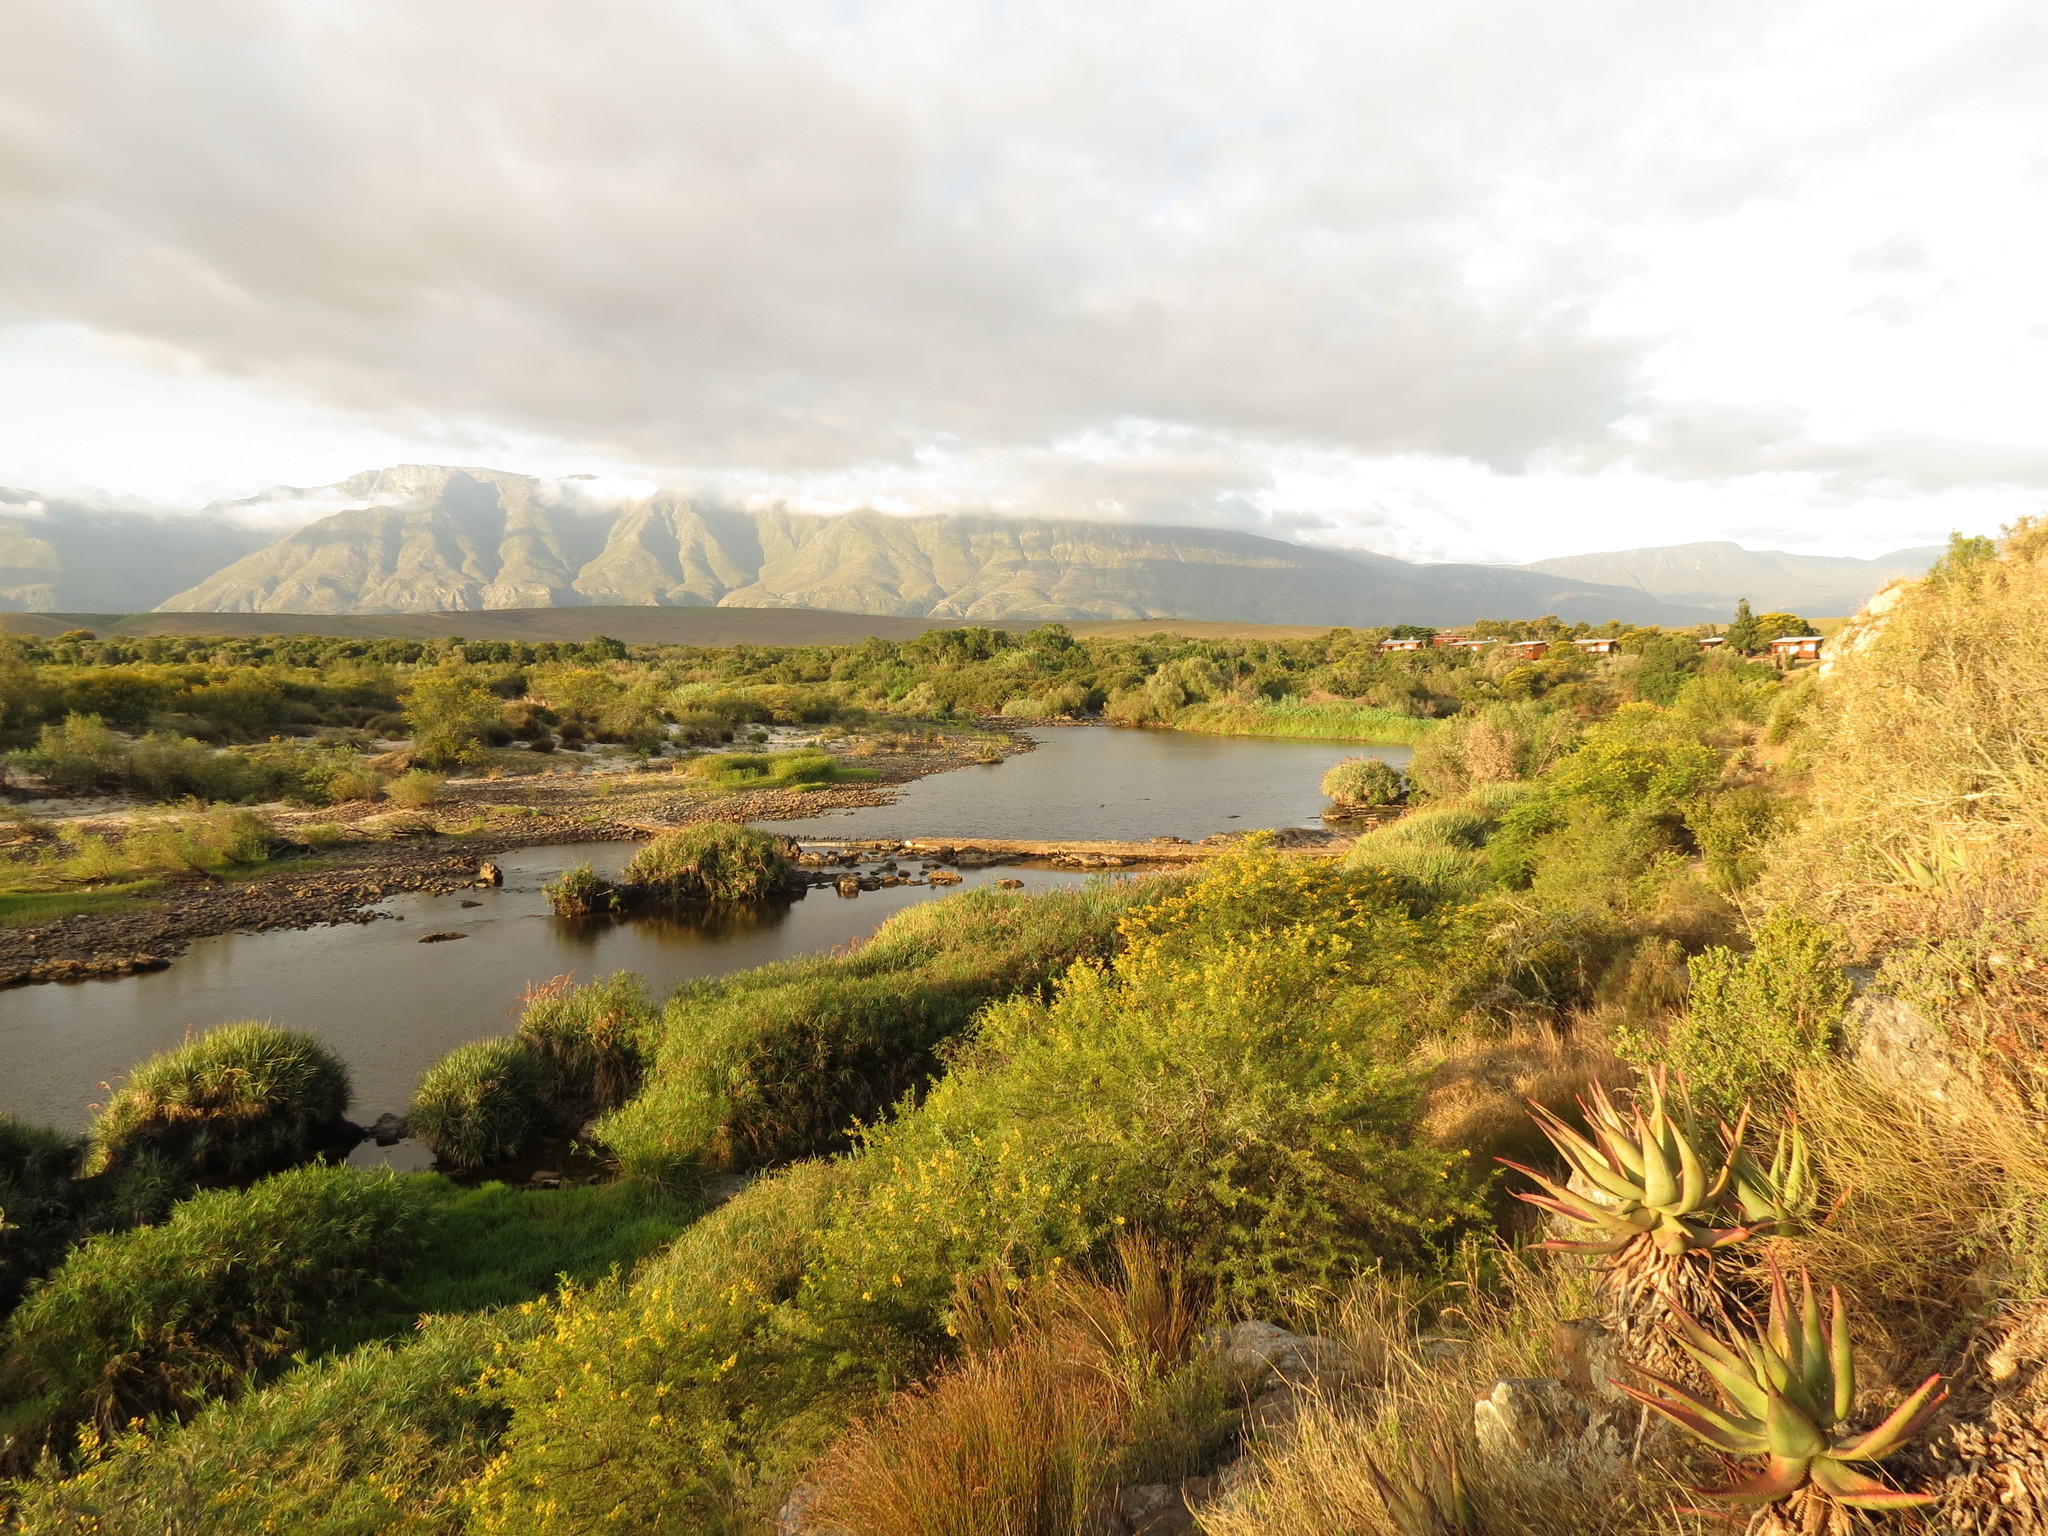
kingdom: Plantae
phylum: Tracheophyta
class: Liliopsida
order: Asparagales
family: Asphodelaceae
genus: Aloe
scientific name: Aloe ferox
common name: Bitter aloe
